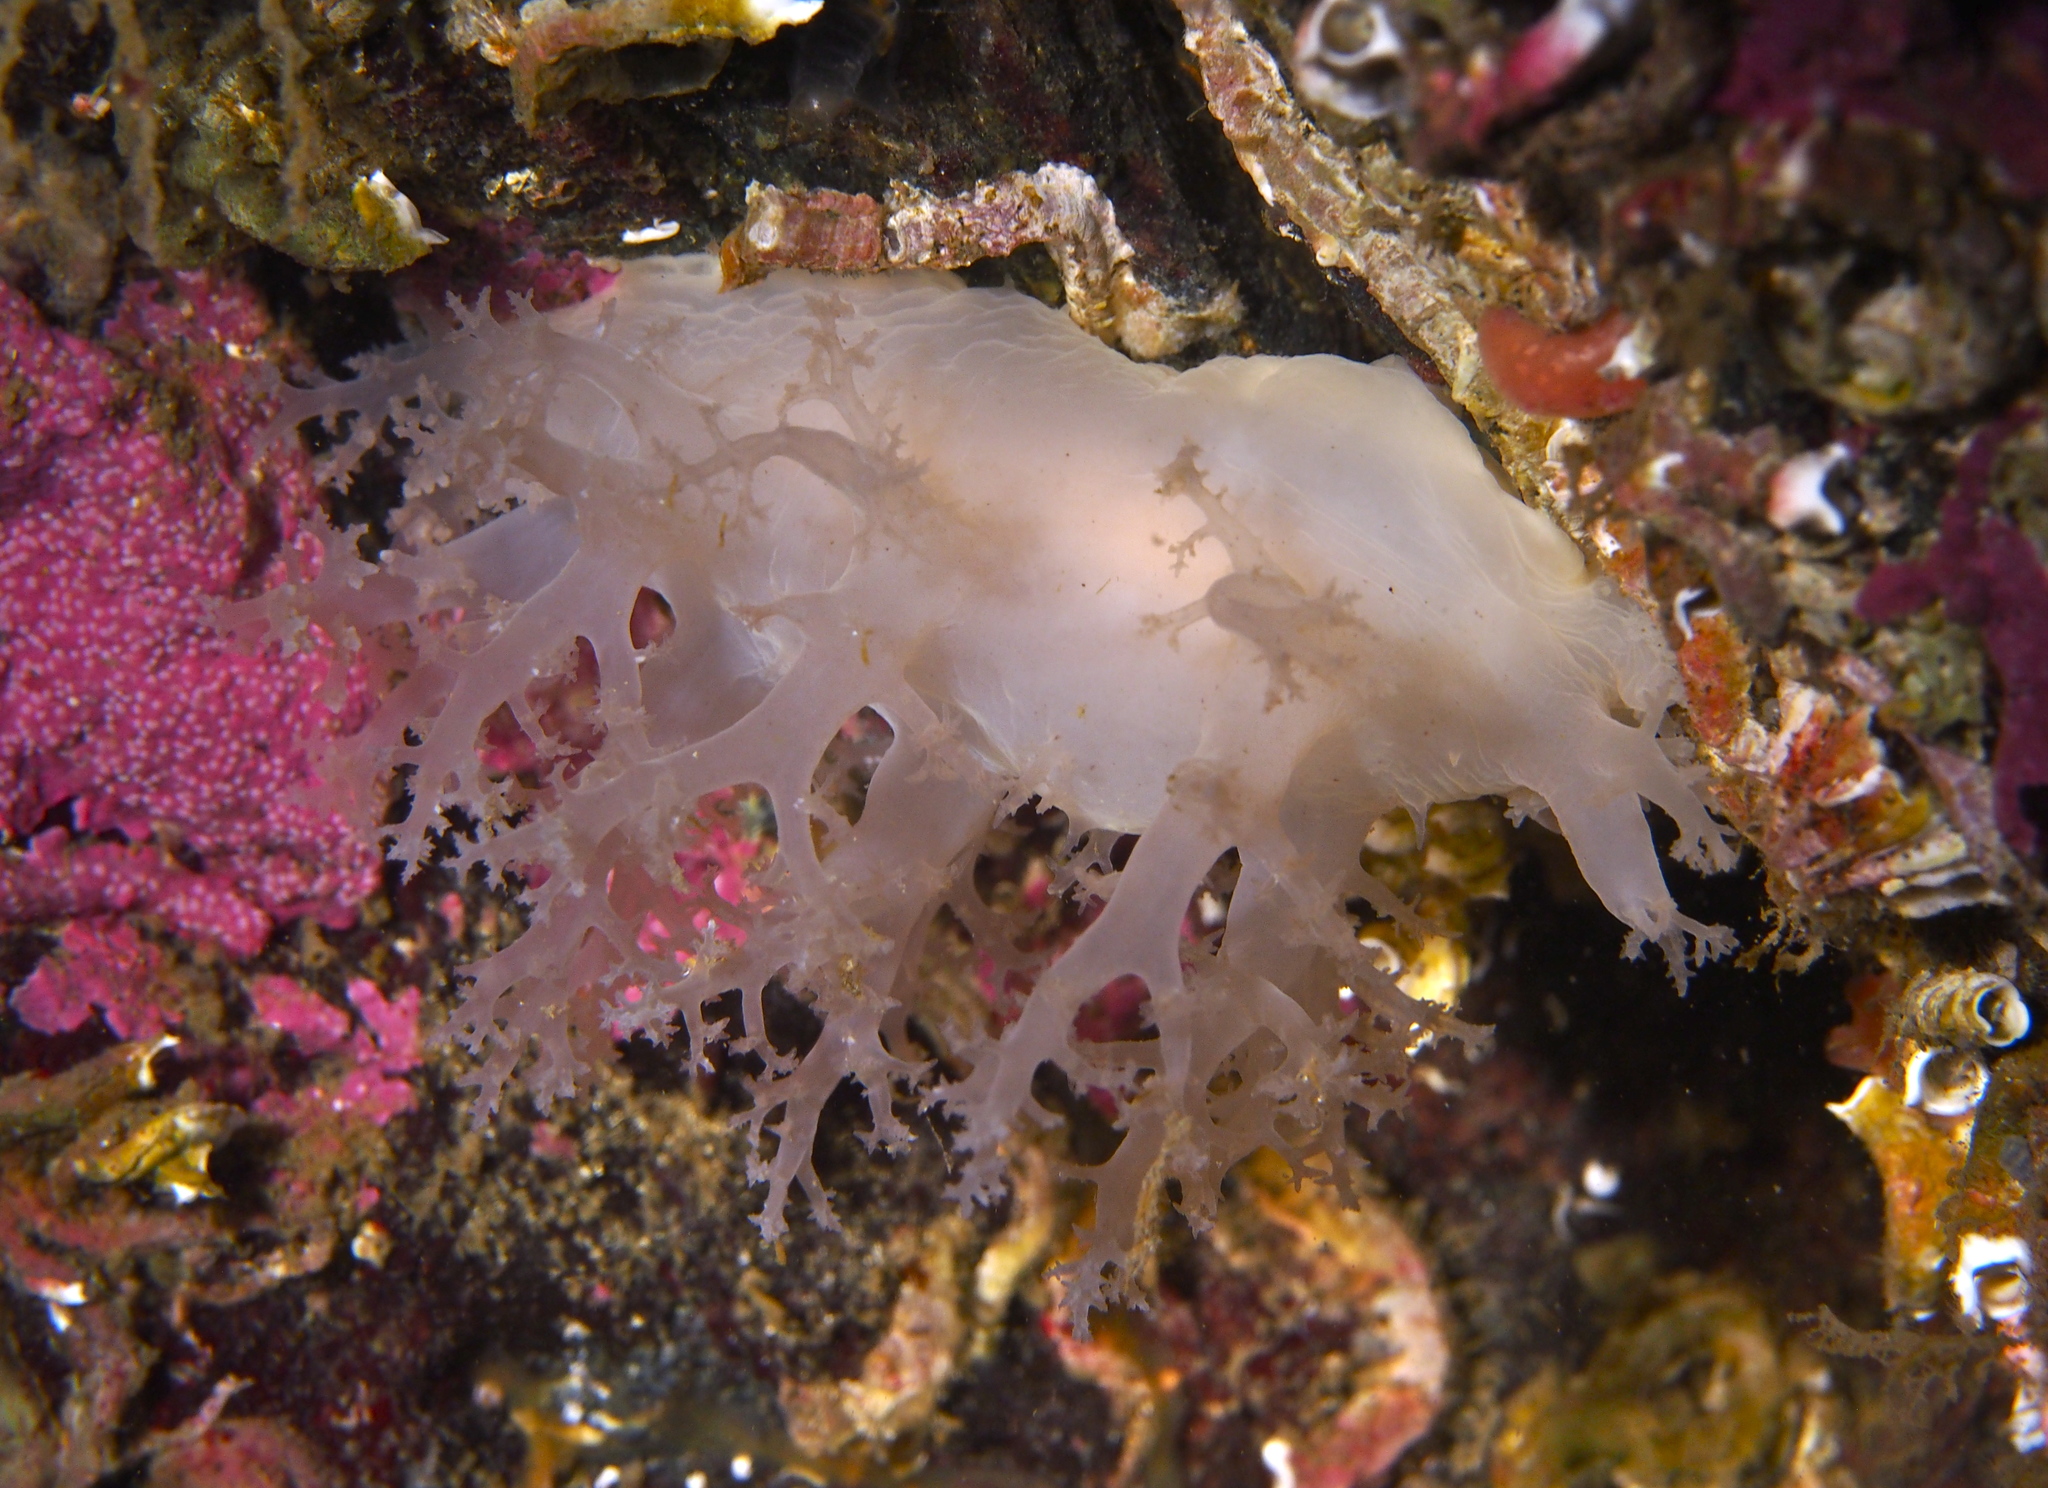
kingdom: Animalia
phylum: Mollusca
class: Gastropoda
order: Nudibranchia
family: Dendronotidae
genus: Dendronotus
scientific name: Dendronotus lacteus
